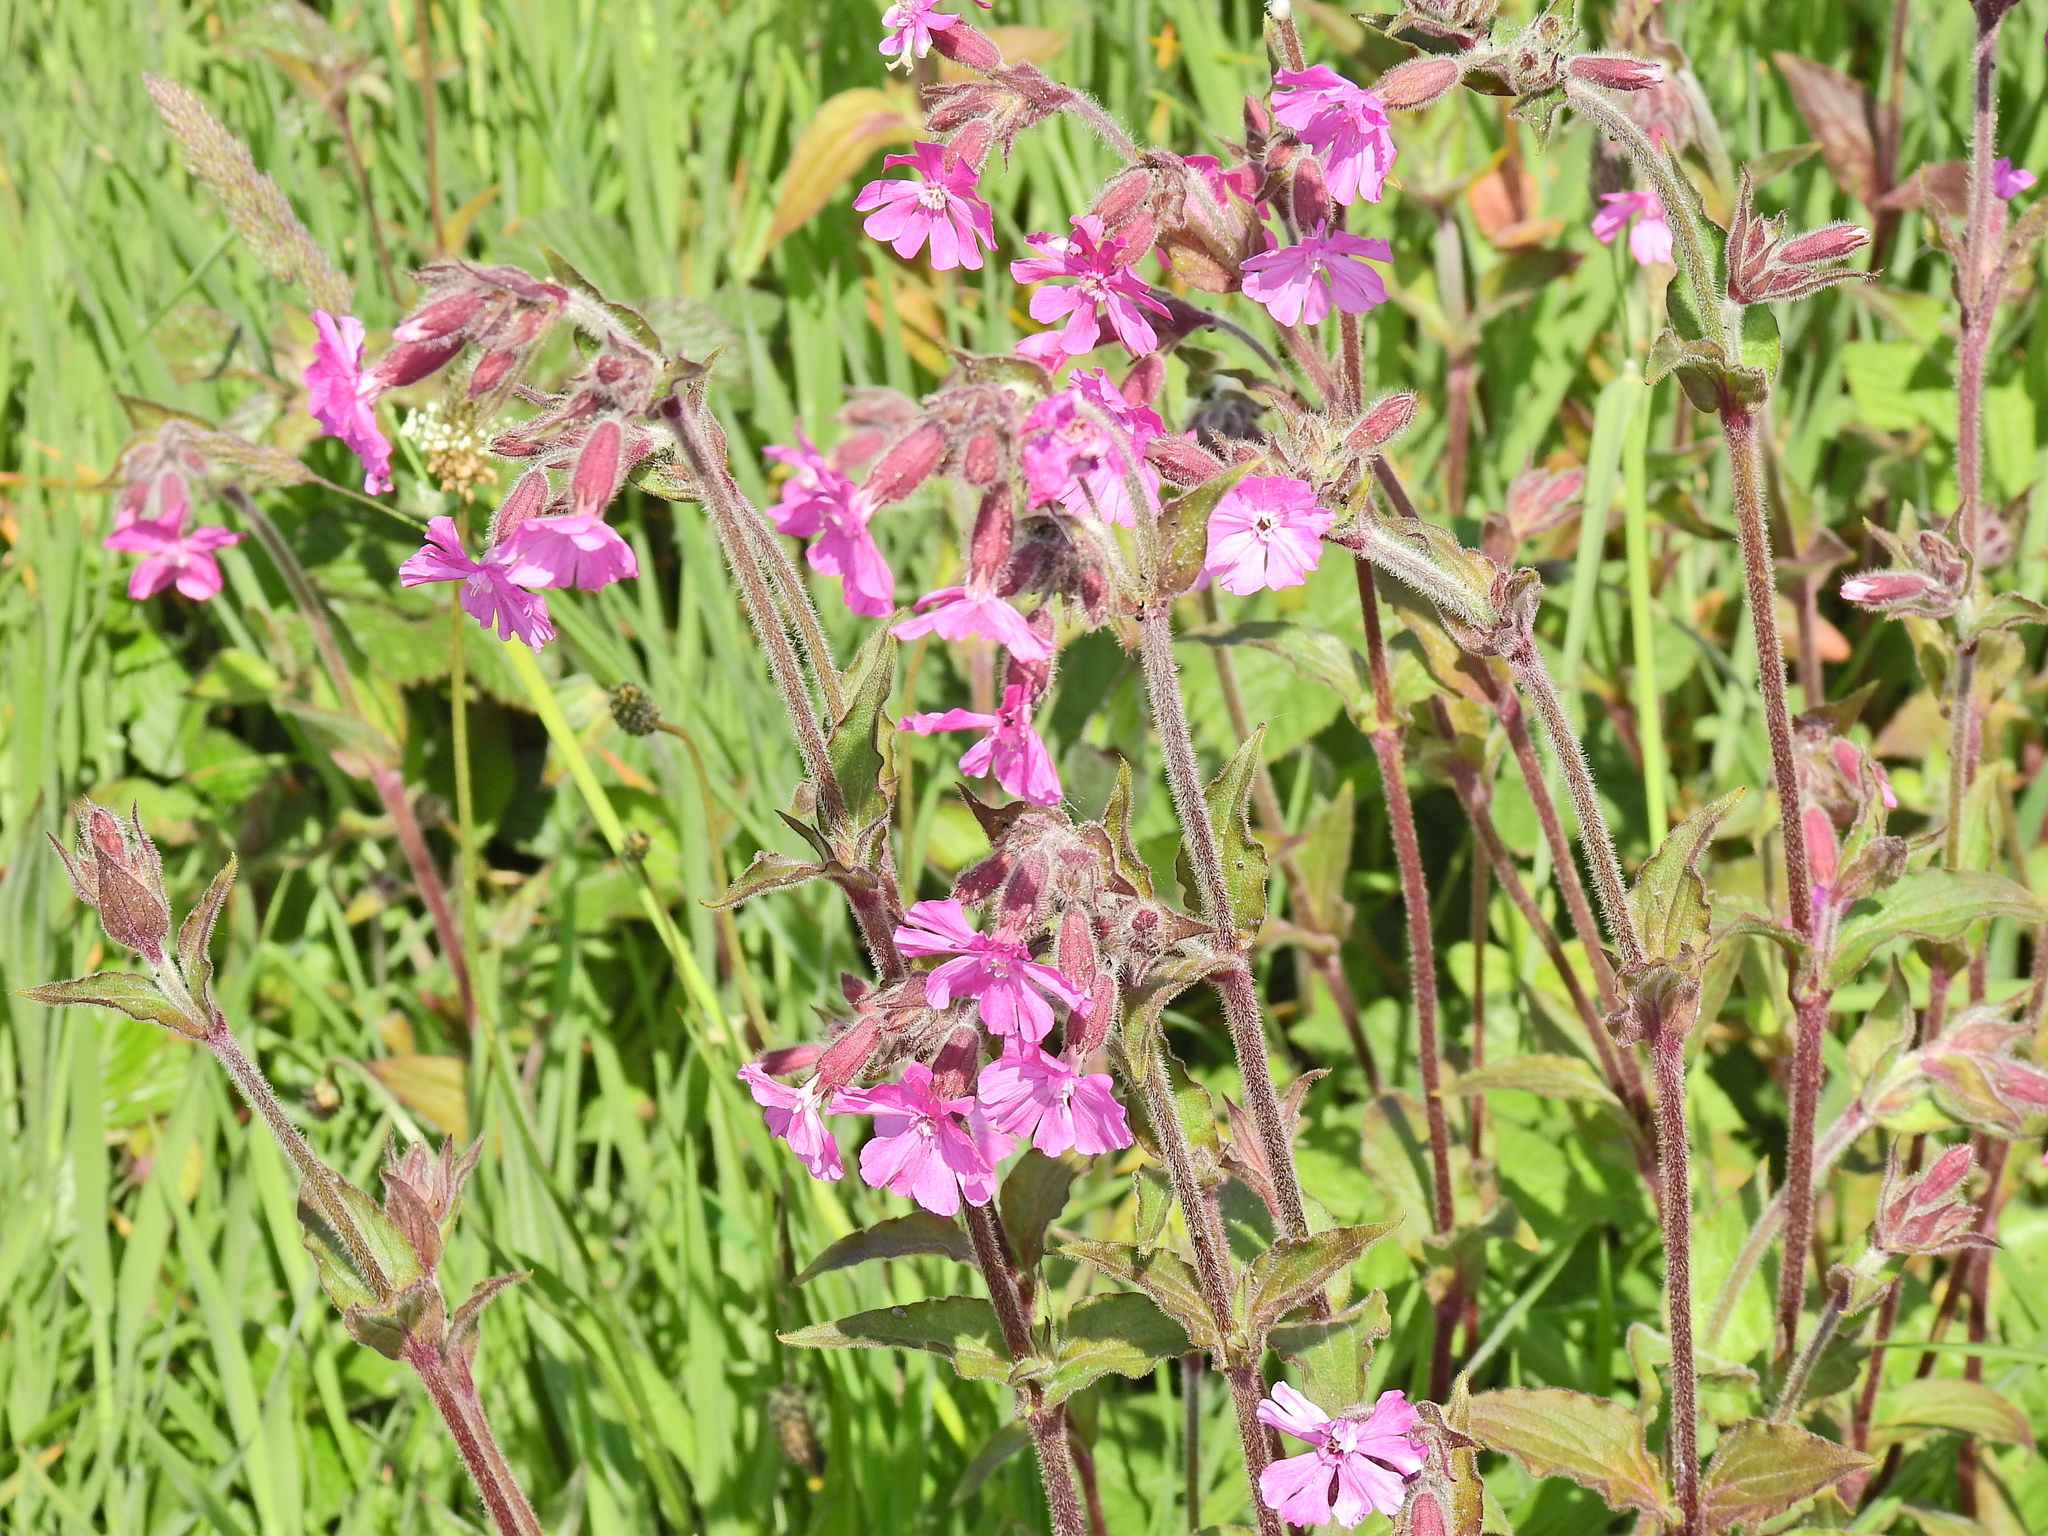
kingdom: Plantae
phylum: Tracheophyta
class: Magnoliopsida
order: Caryophyllales
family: Caryophyllaceae
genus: Silene
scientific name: Silene dioica
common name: Red campion
